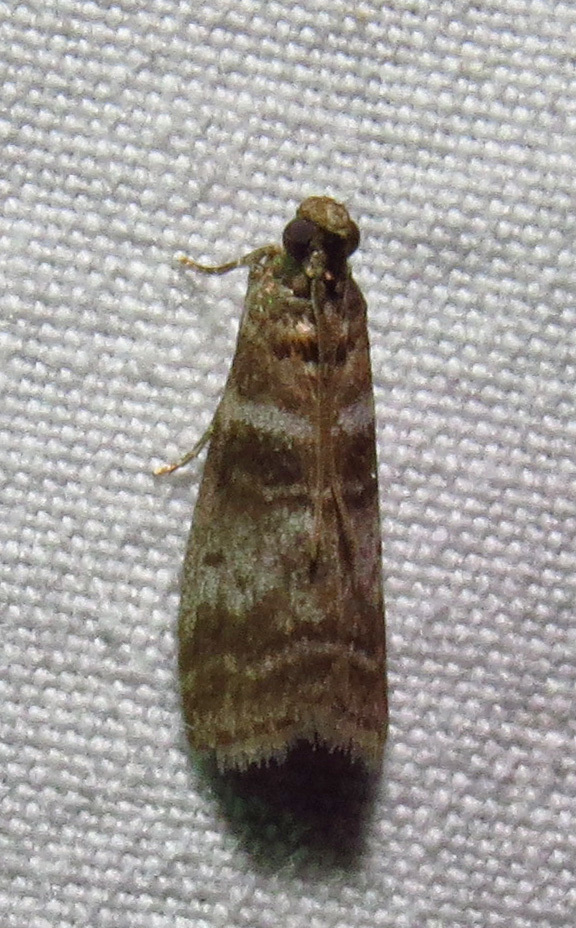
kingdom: Animalia
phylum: Arthropoda
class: Insecta
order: Lepidoptera
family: Pyralidae
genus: Sciota
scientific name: Sciota uvinella
